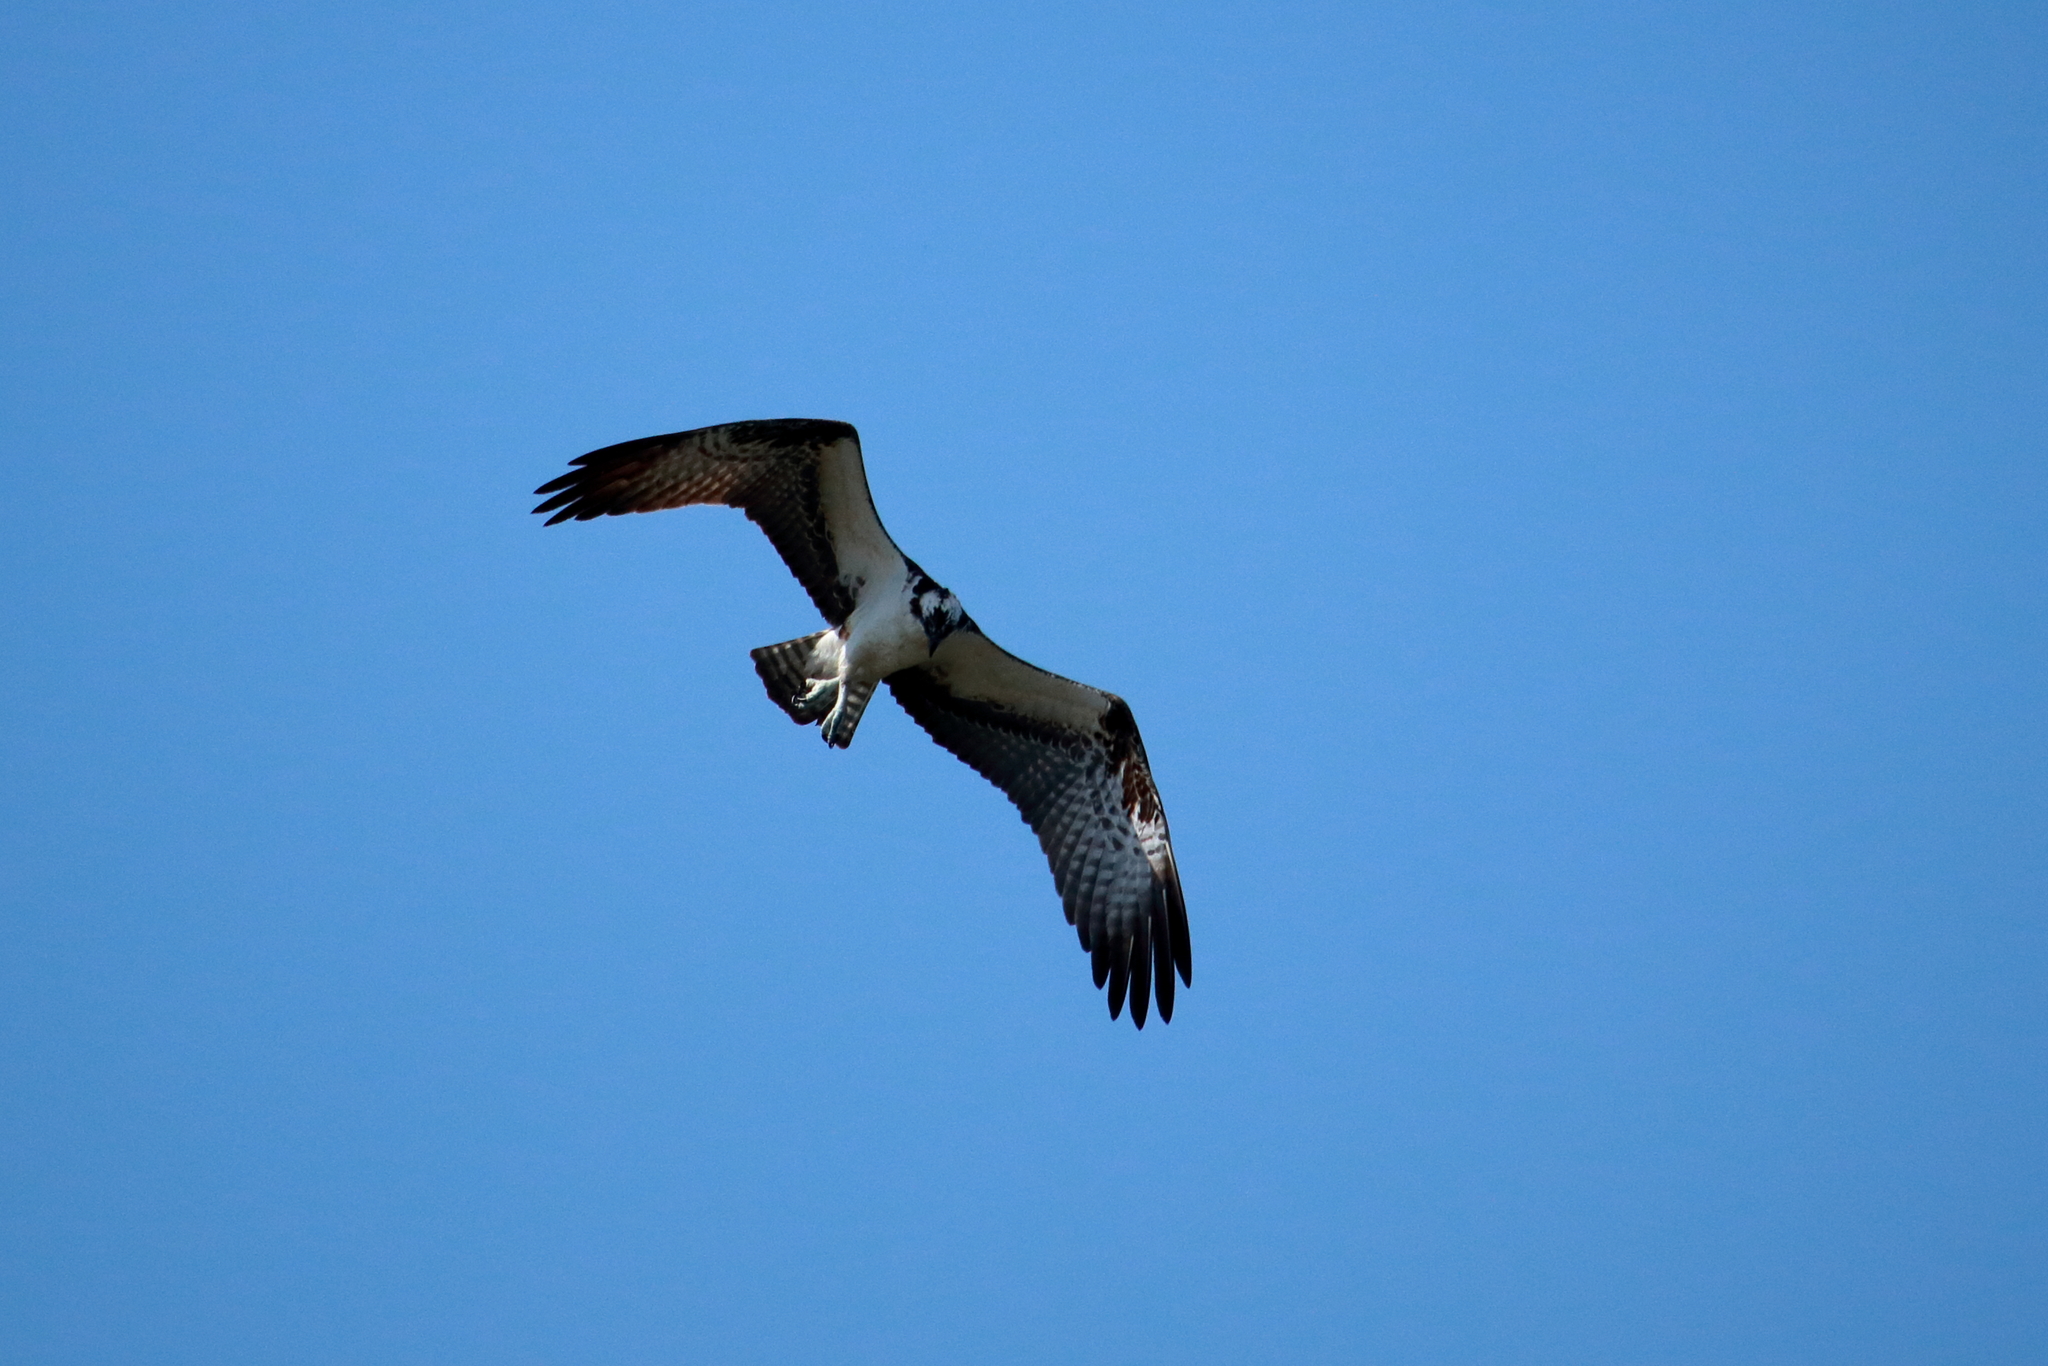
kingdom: Animalia
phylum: Chordata
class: Aves
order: Accipitriformes
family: Pandionidae
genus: Pandion
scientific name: Pandion haliaetus
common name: Osprey
